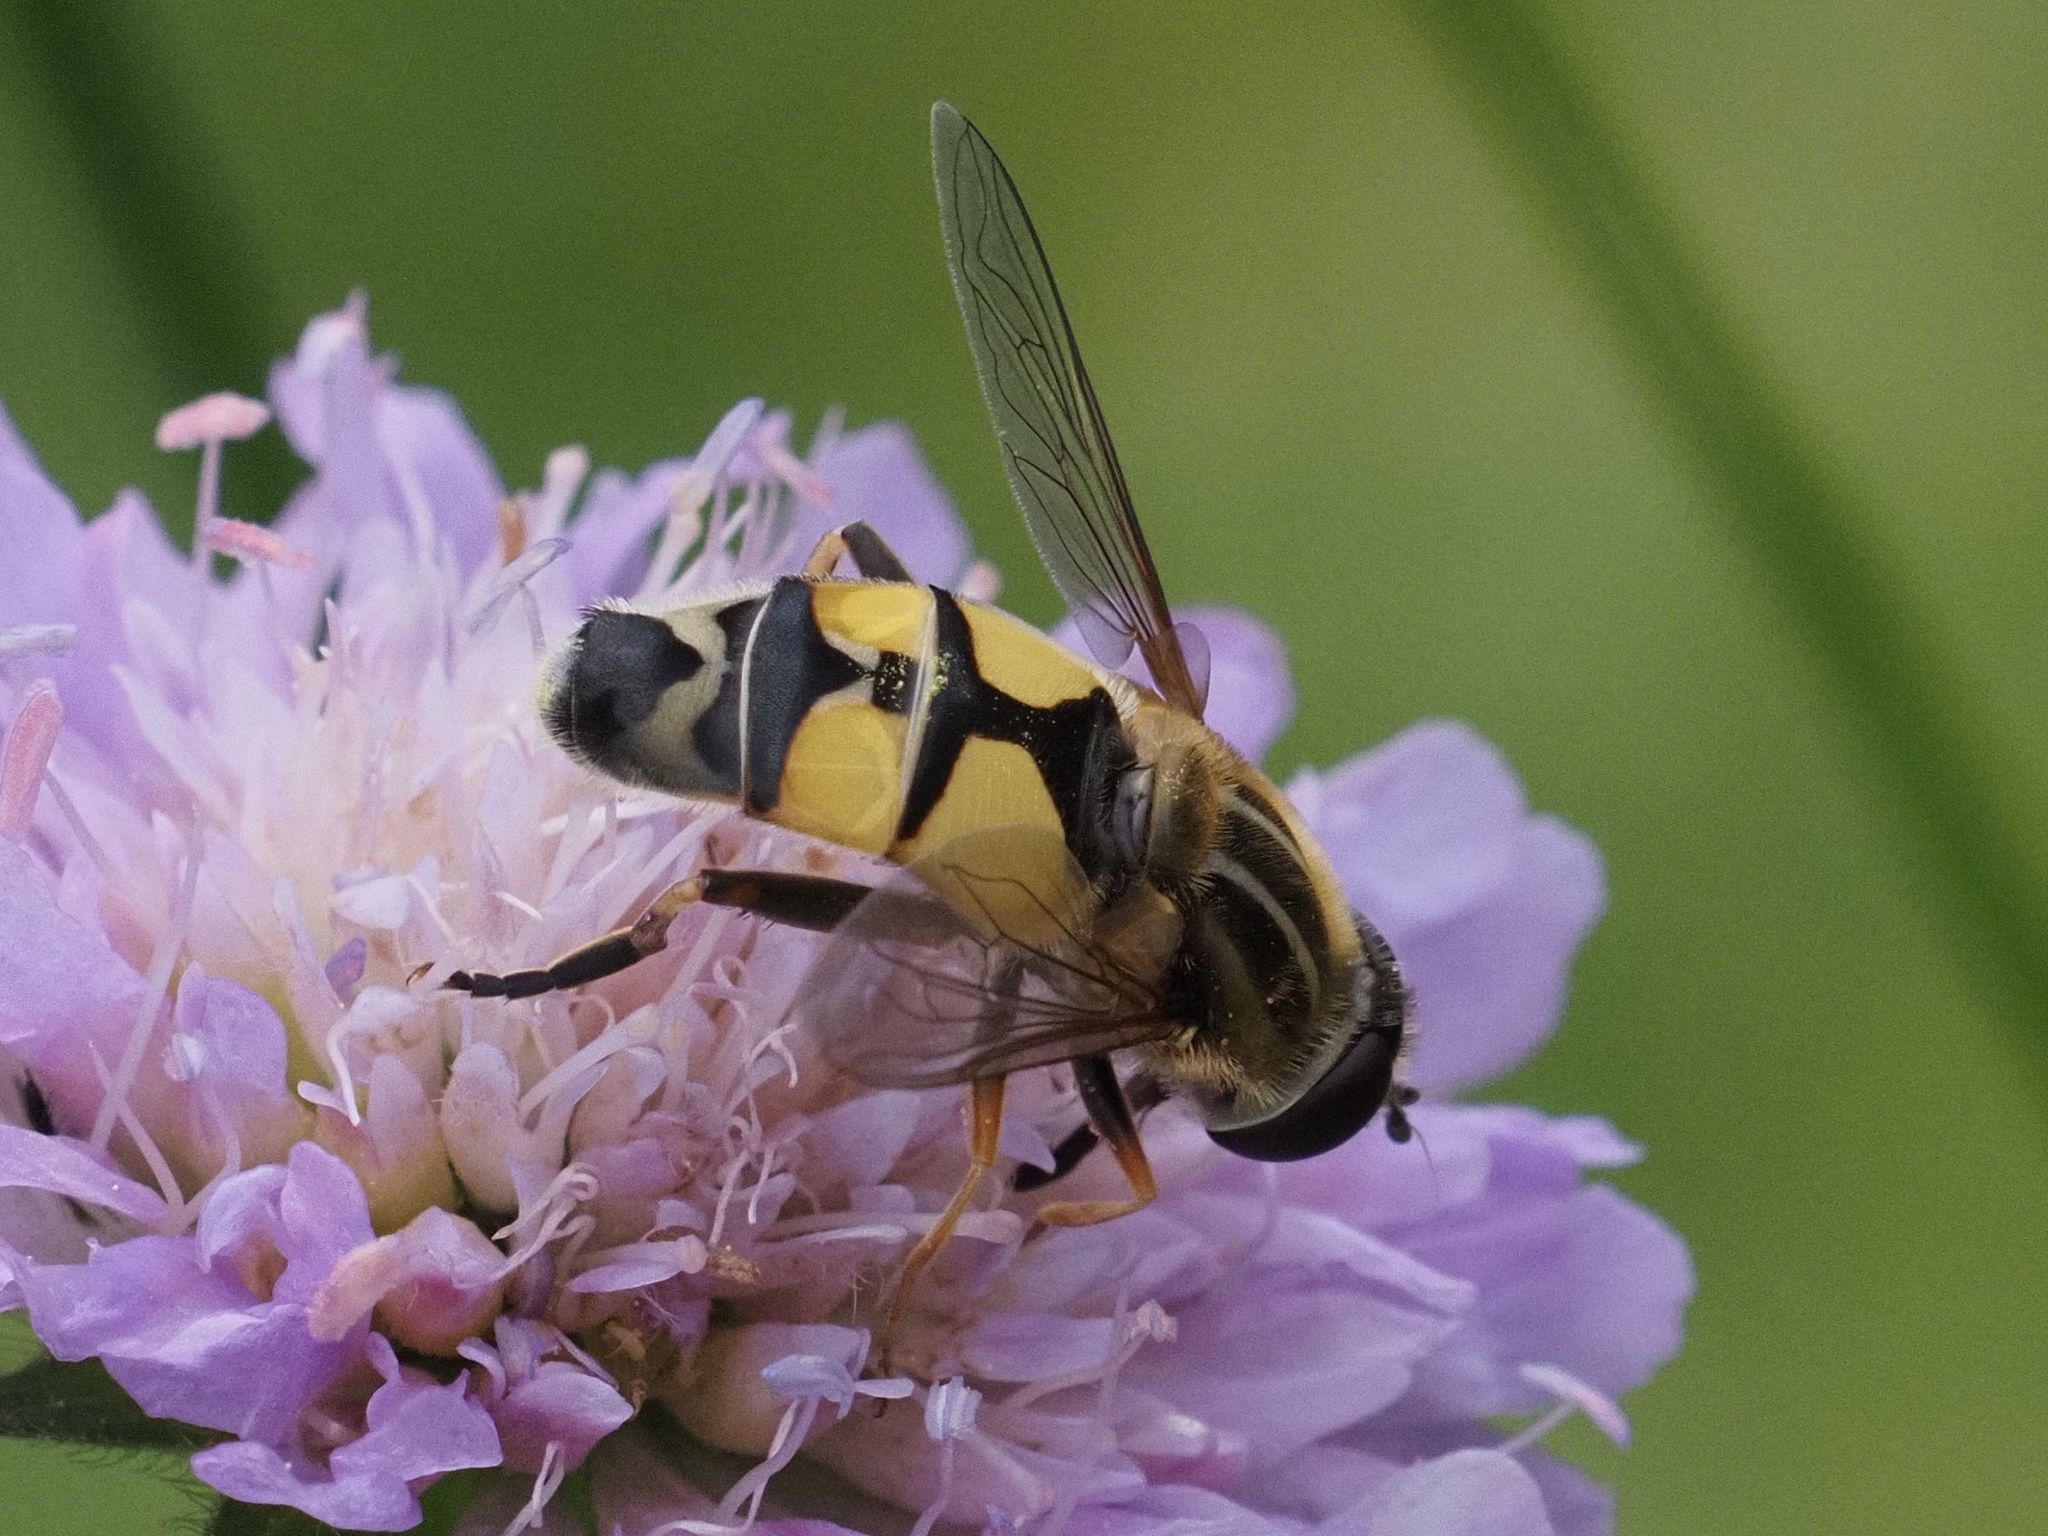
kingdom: Animalia
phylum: Arthropoda
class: Insecta
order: Diptera
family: Syrphidae
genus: Helophilus
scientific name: Helophilus trivittatus
